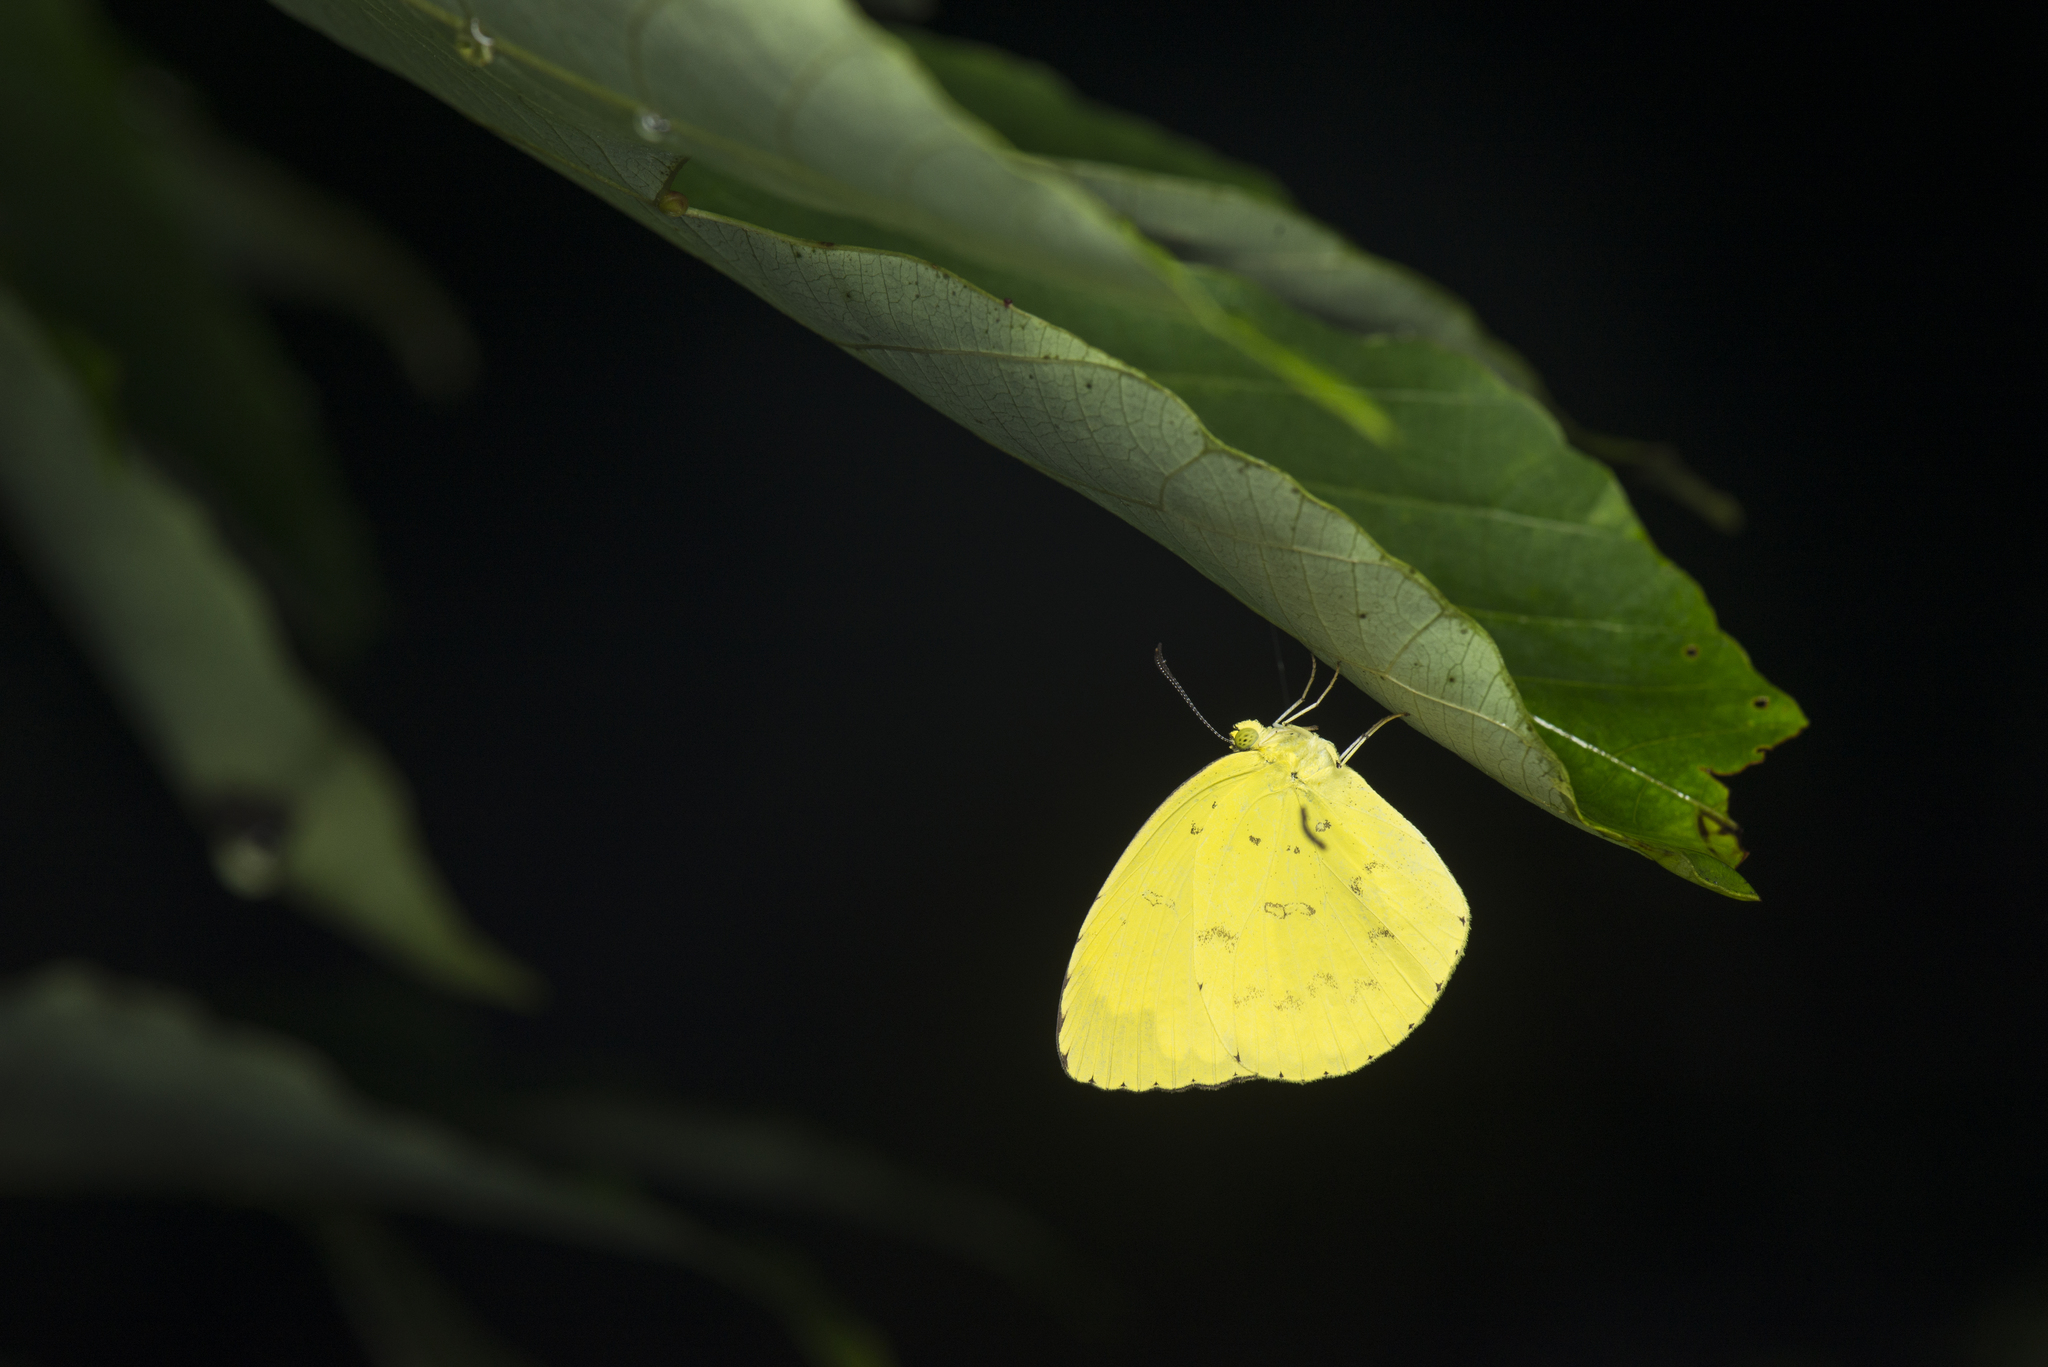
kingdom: Animalia
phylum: Arthropoda
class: Insecta
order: Lepidoptera
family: Pieridae
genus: Eurema
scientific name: Eurema blanda
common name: Three-spot grass yellow
